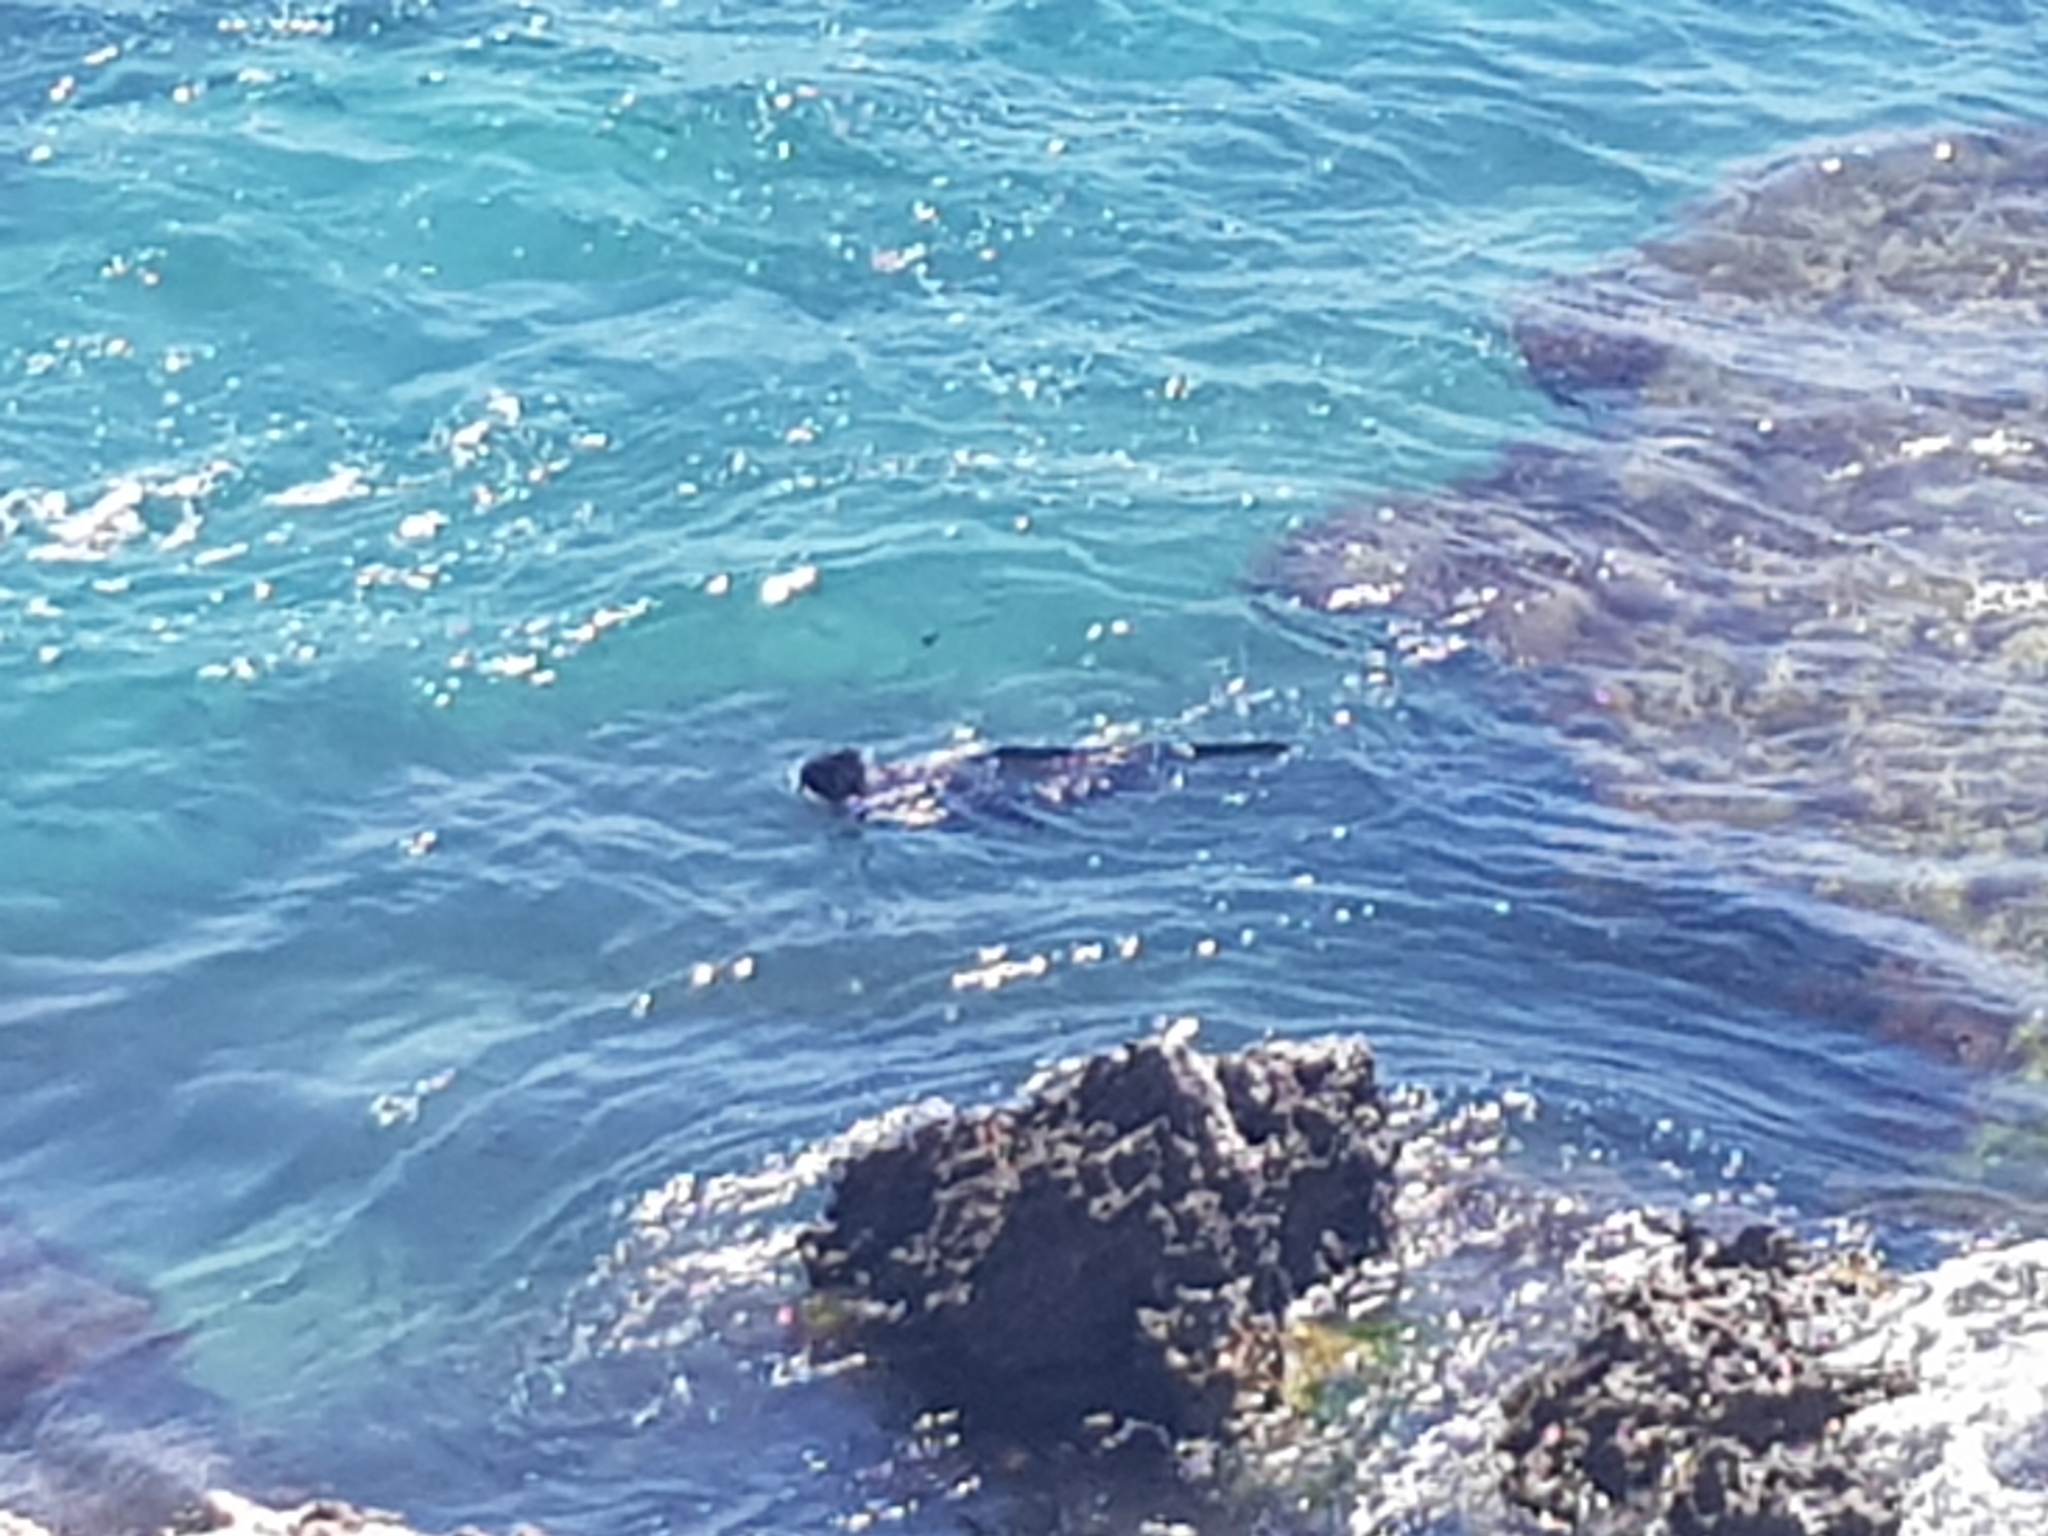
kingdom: Animalia
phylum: Chordata
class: Mammalia
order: Carnivora
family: Otariidae
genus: Arctocephalus
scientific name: Arctocephalus forsteri
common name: New zealand fur seal
